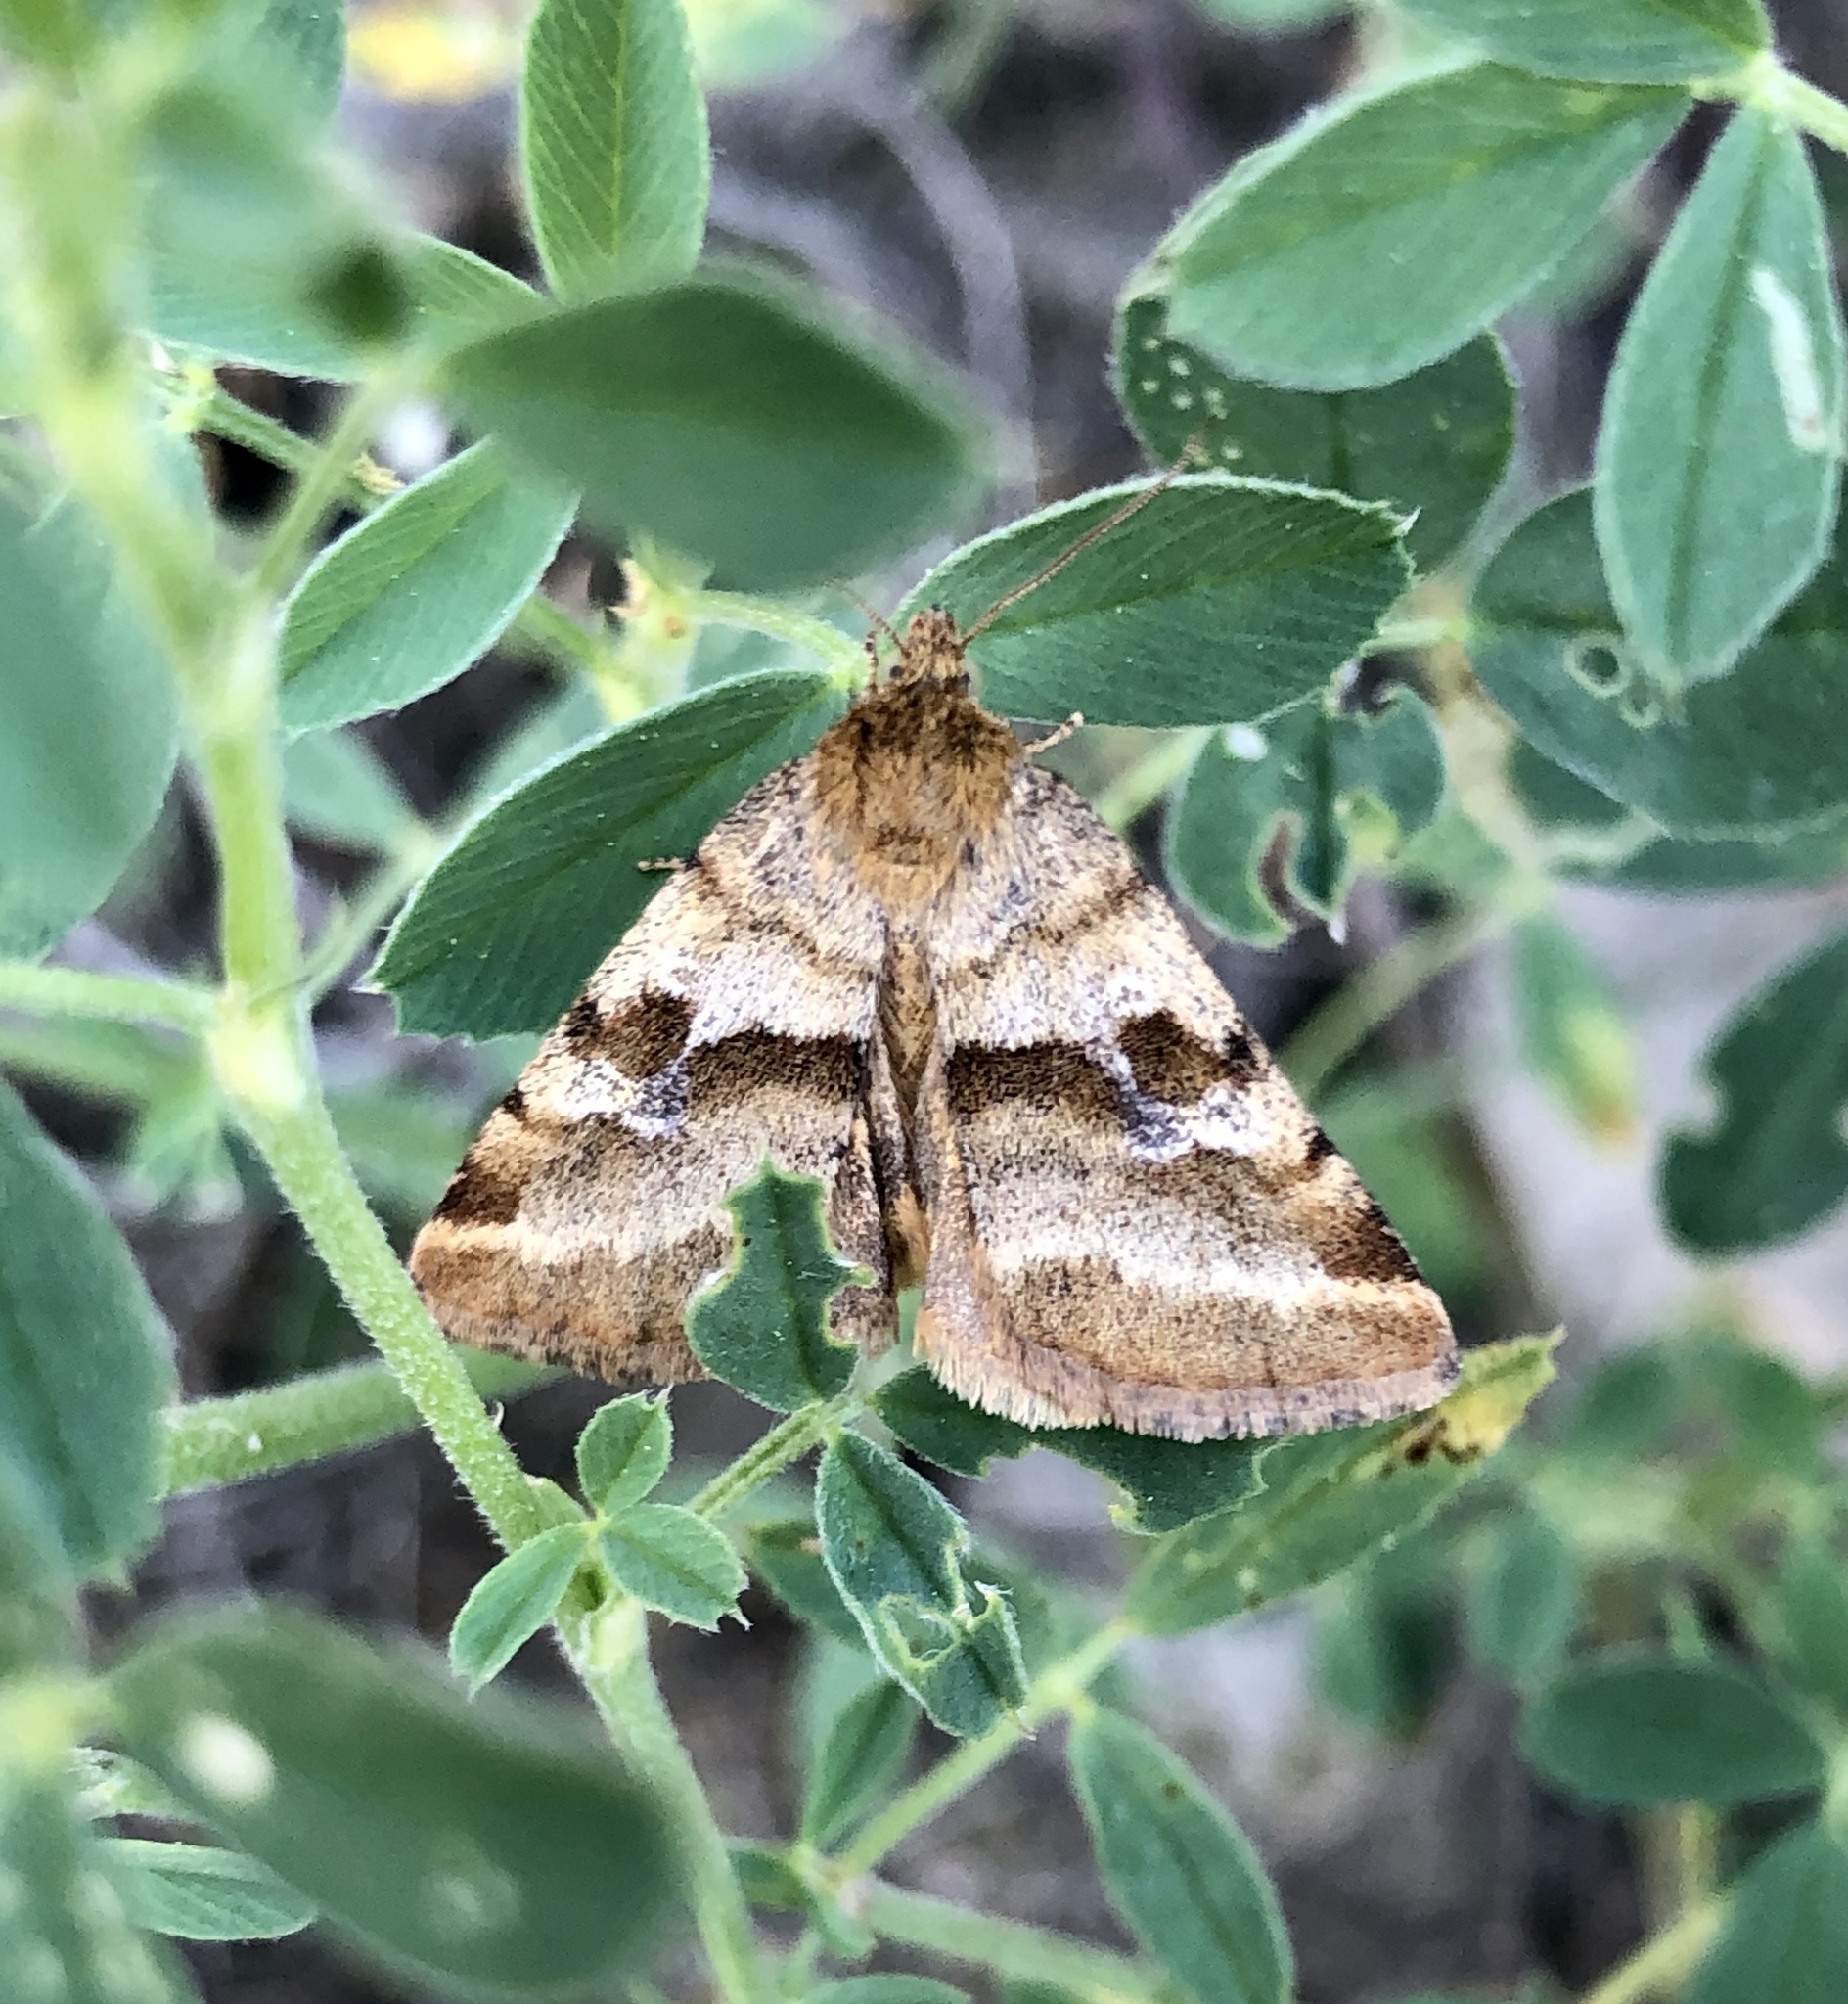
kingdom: Animalia
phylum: Arthropoda
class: Insecta
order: Lepidoptera
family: Noctuidae
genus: Synthymia
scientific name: Synthymia fixa
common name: Goldwing
